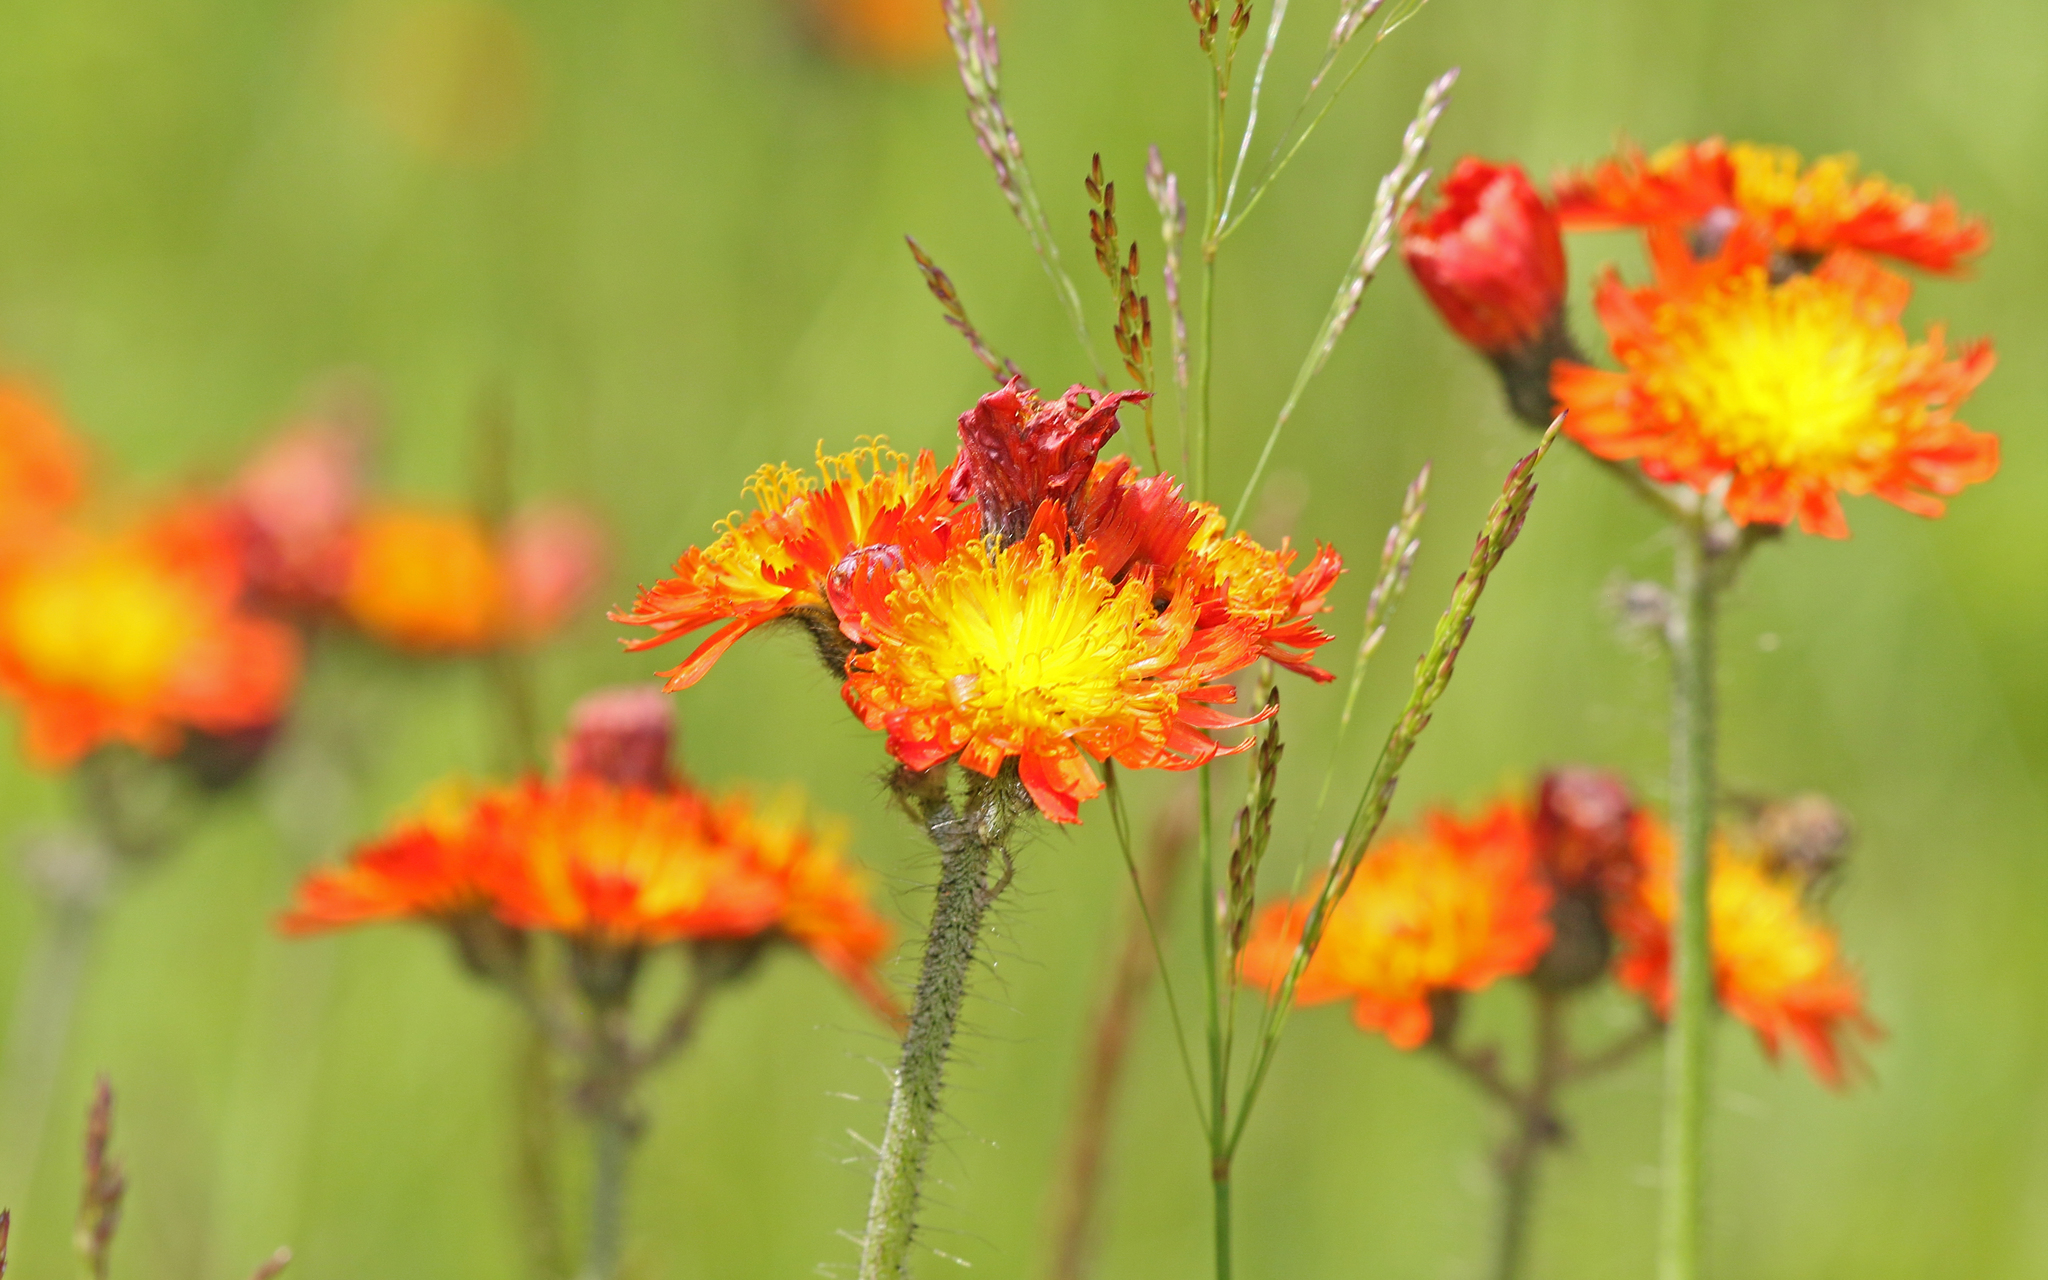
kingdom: Plantae
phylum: Tracheophyta
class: Magnoliopsida
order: Asterales
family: Asteraceae
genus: Pilosella
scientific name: Pilosella aurantiaca
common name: Fox-and-cubs
